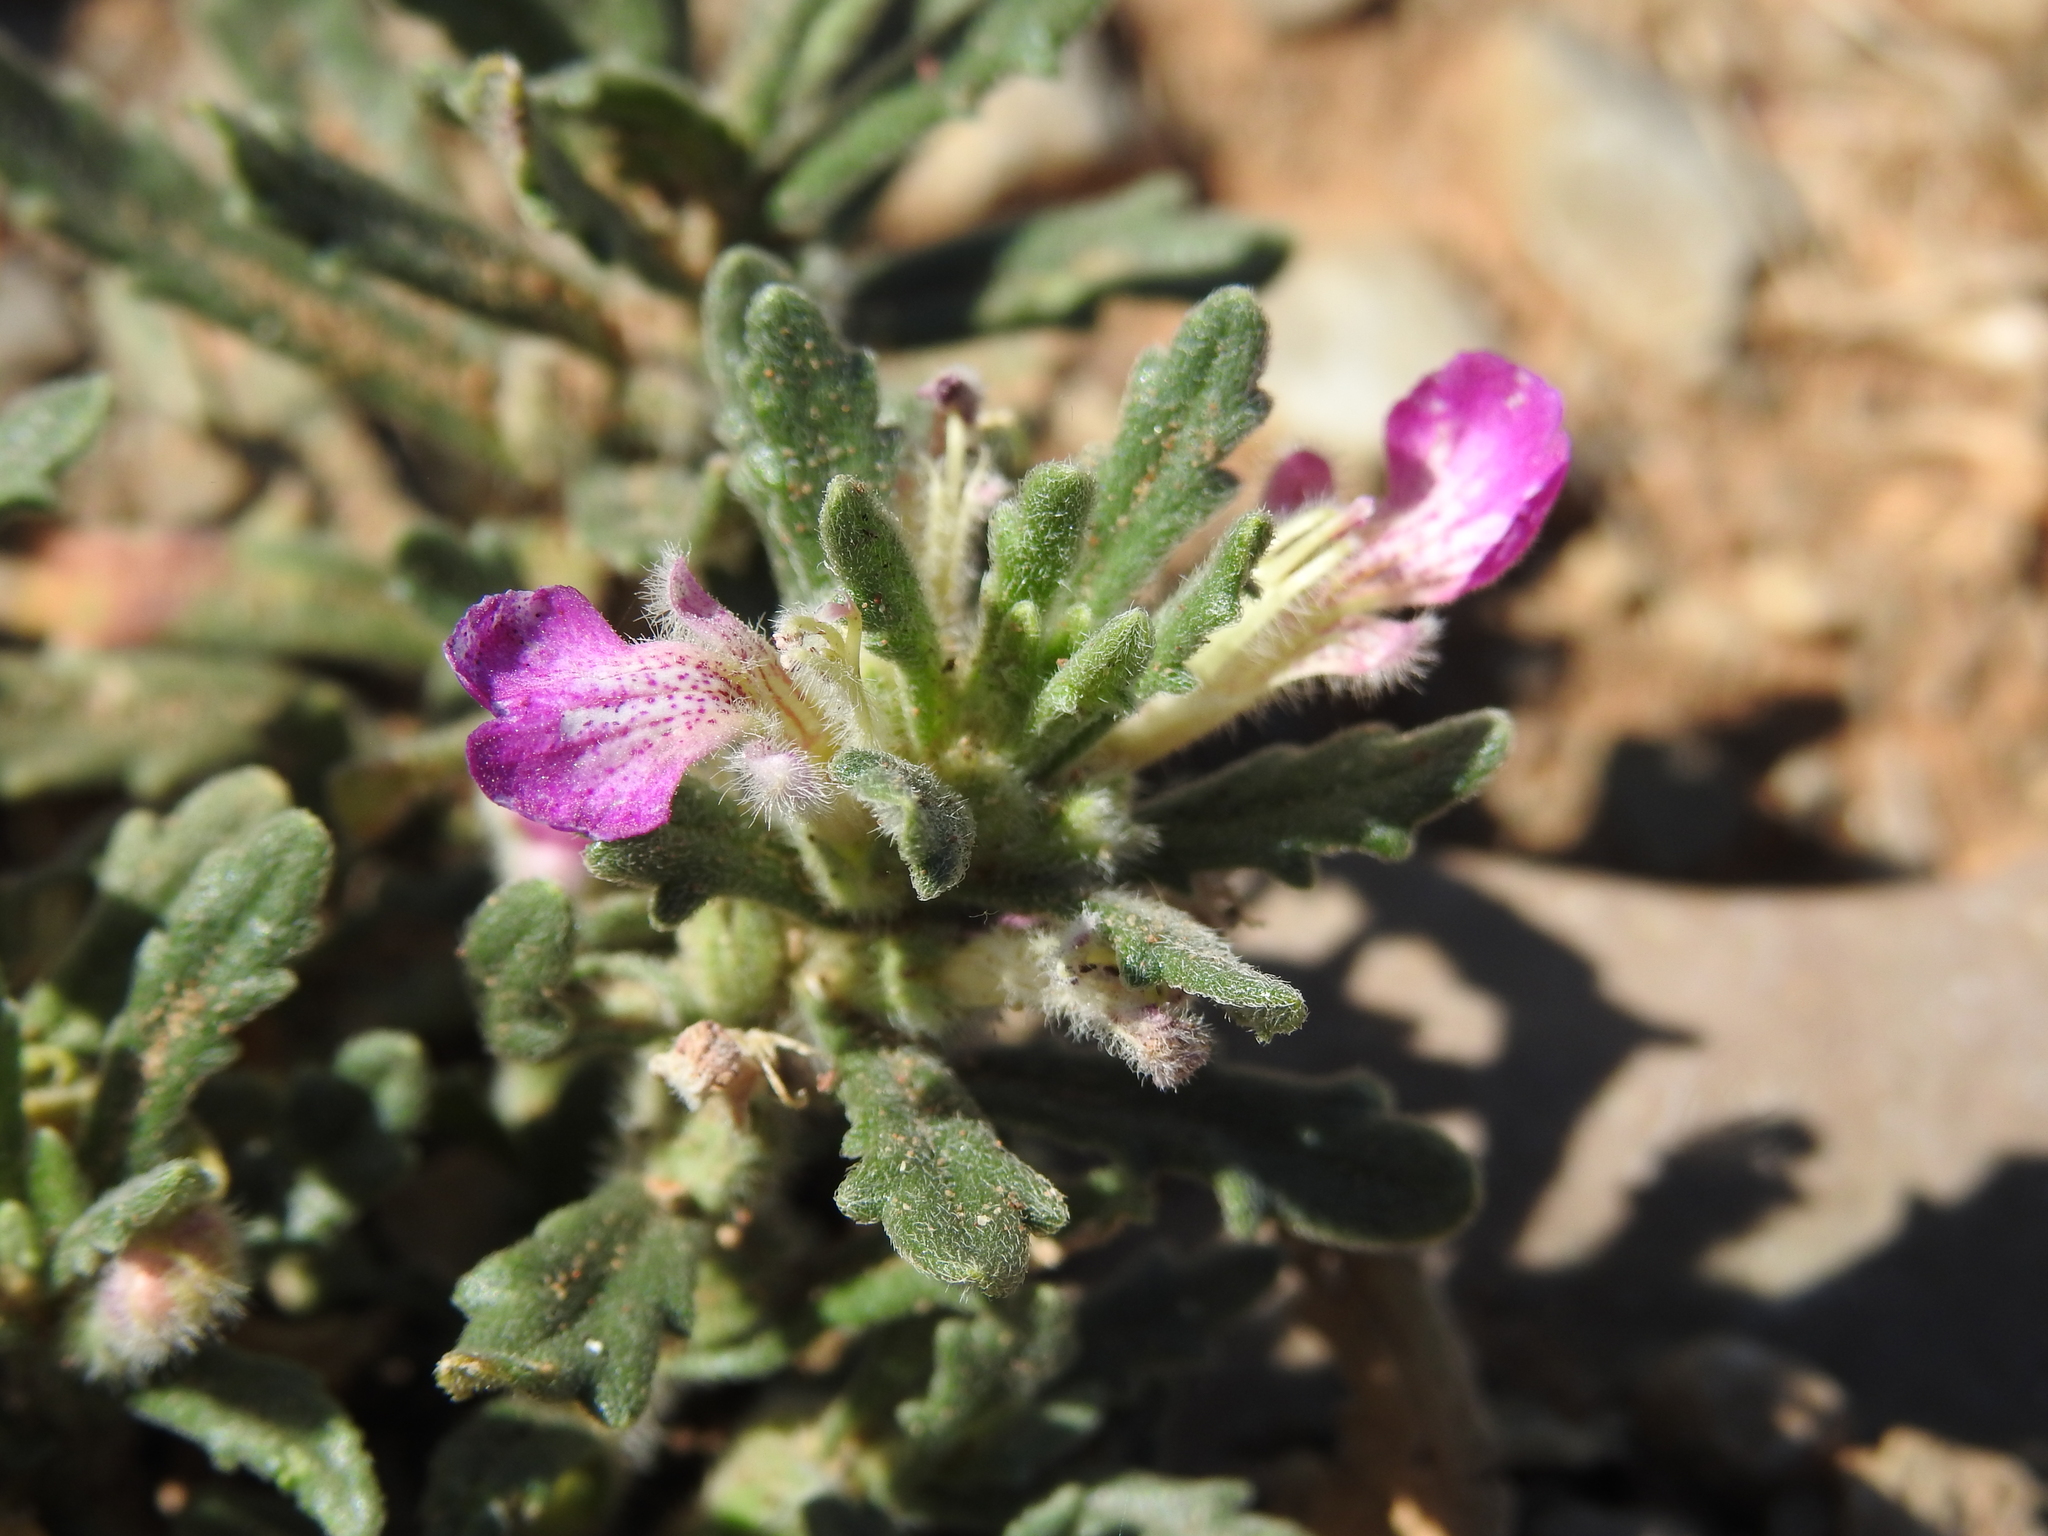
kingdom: Plantae
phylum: Tracheophyta
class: Magnoliopsida
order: Lamiales
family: Lamiaceae
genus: Ajuga
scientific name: Ajuga iva
